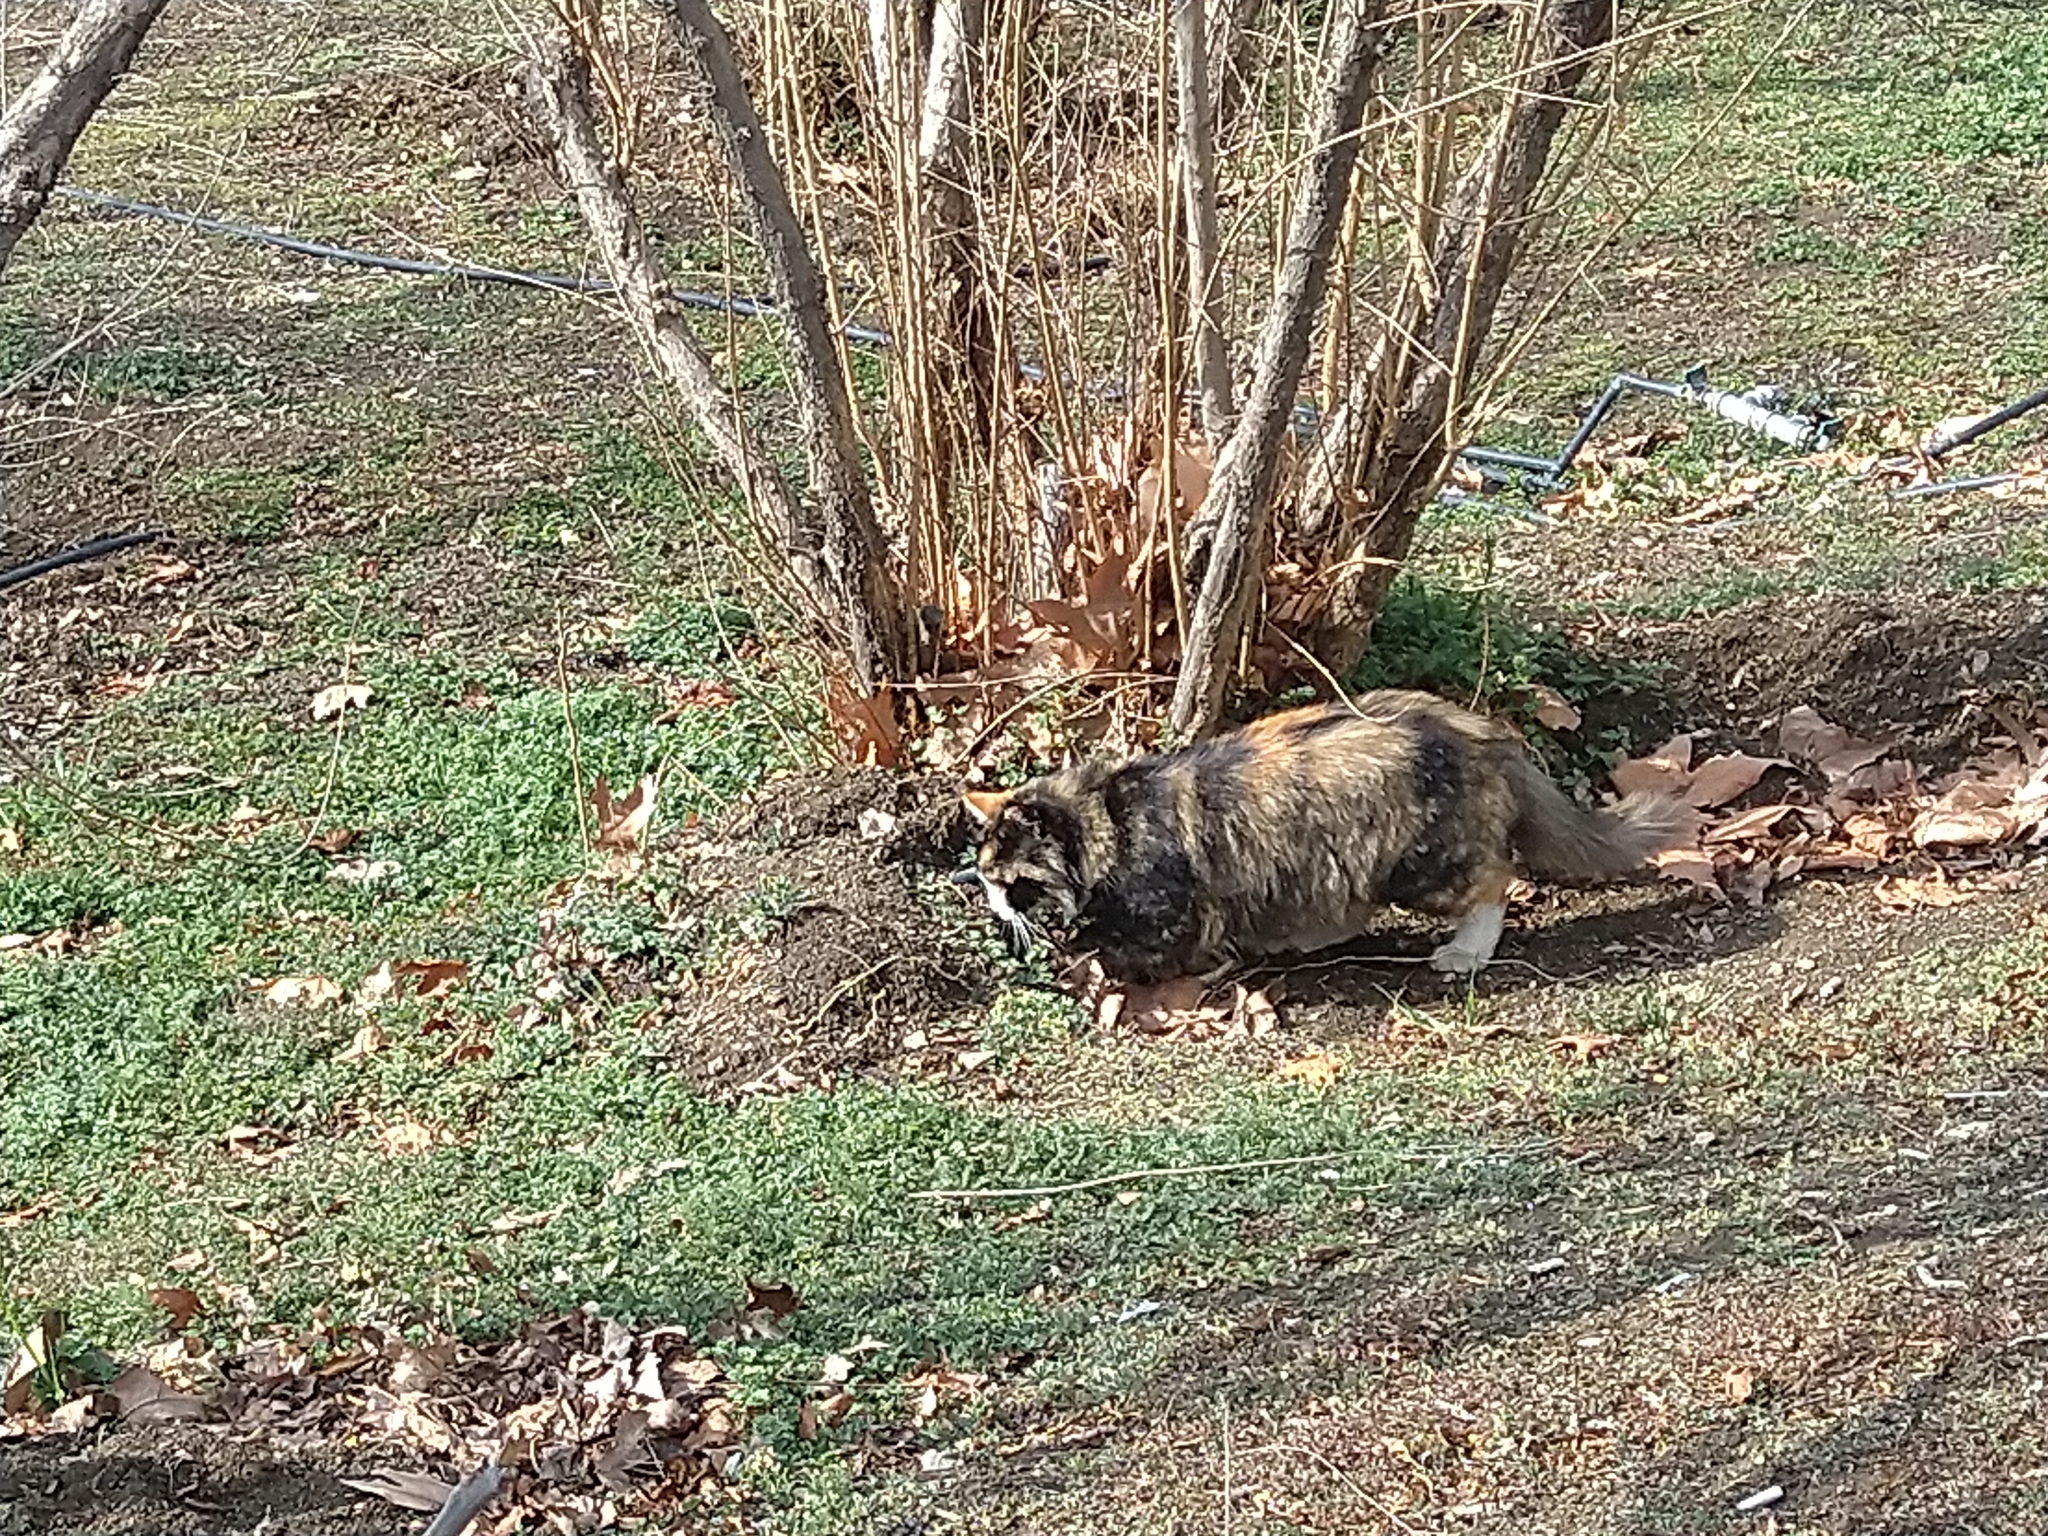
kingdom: Animalia
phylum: Chordata
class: Mammalia
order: Carnivora
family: Felidae
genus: Felis
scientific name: Felis catus
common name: Domestic cat
